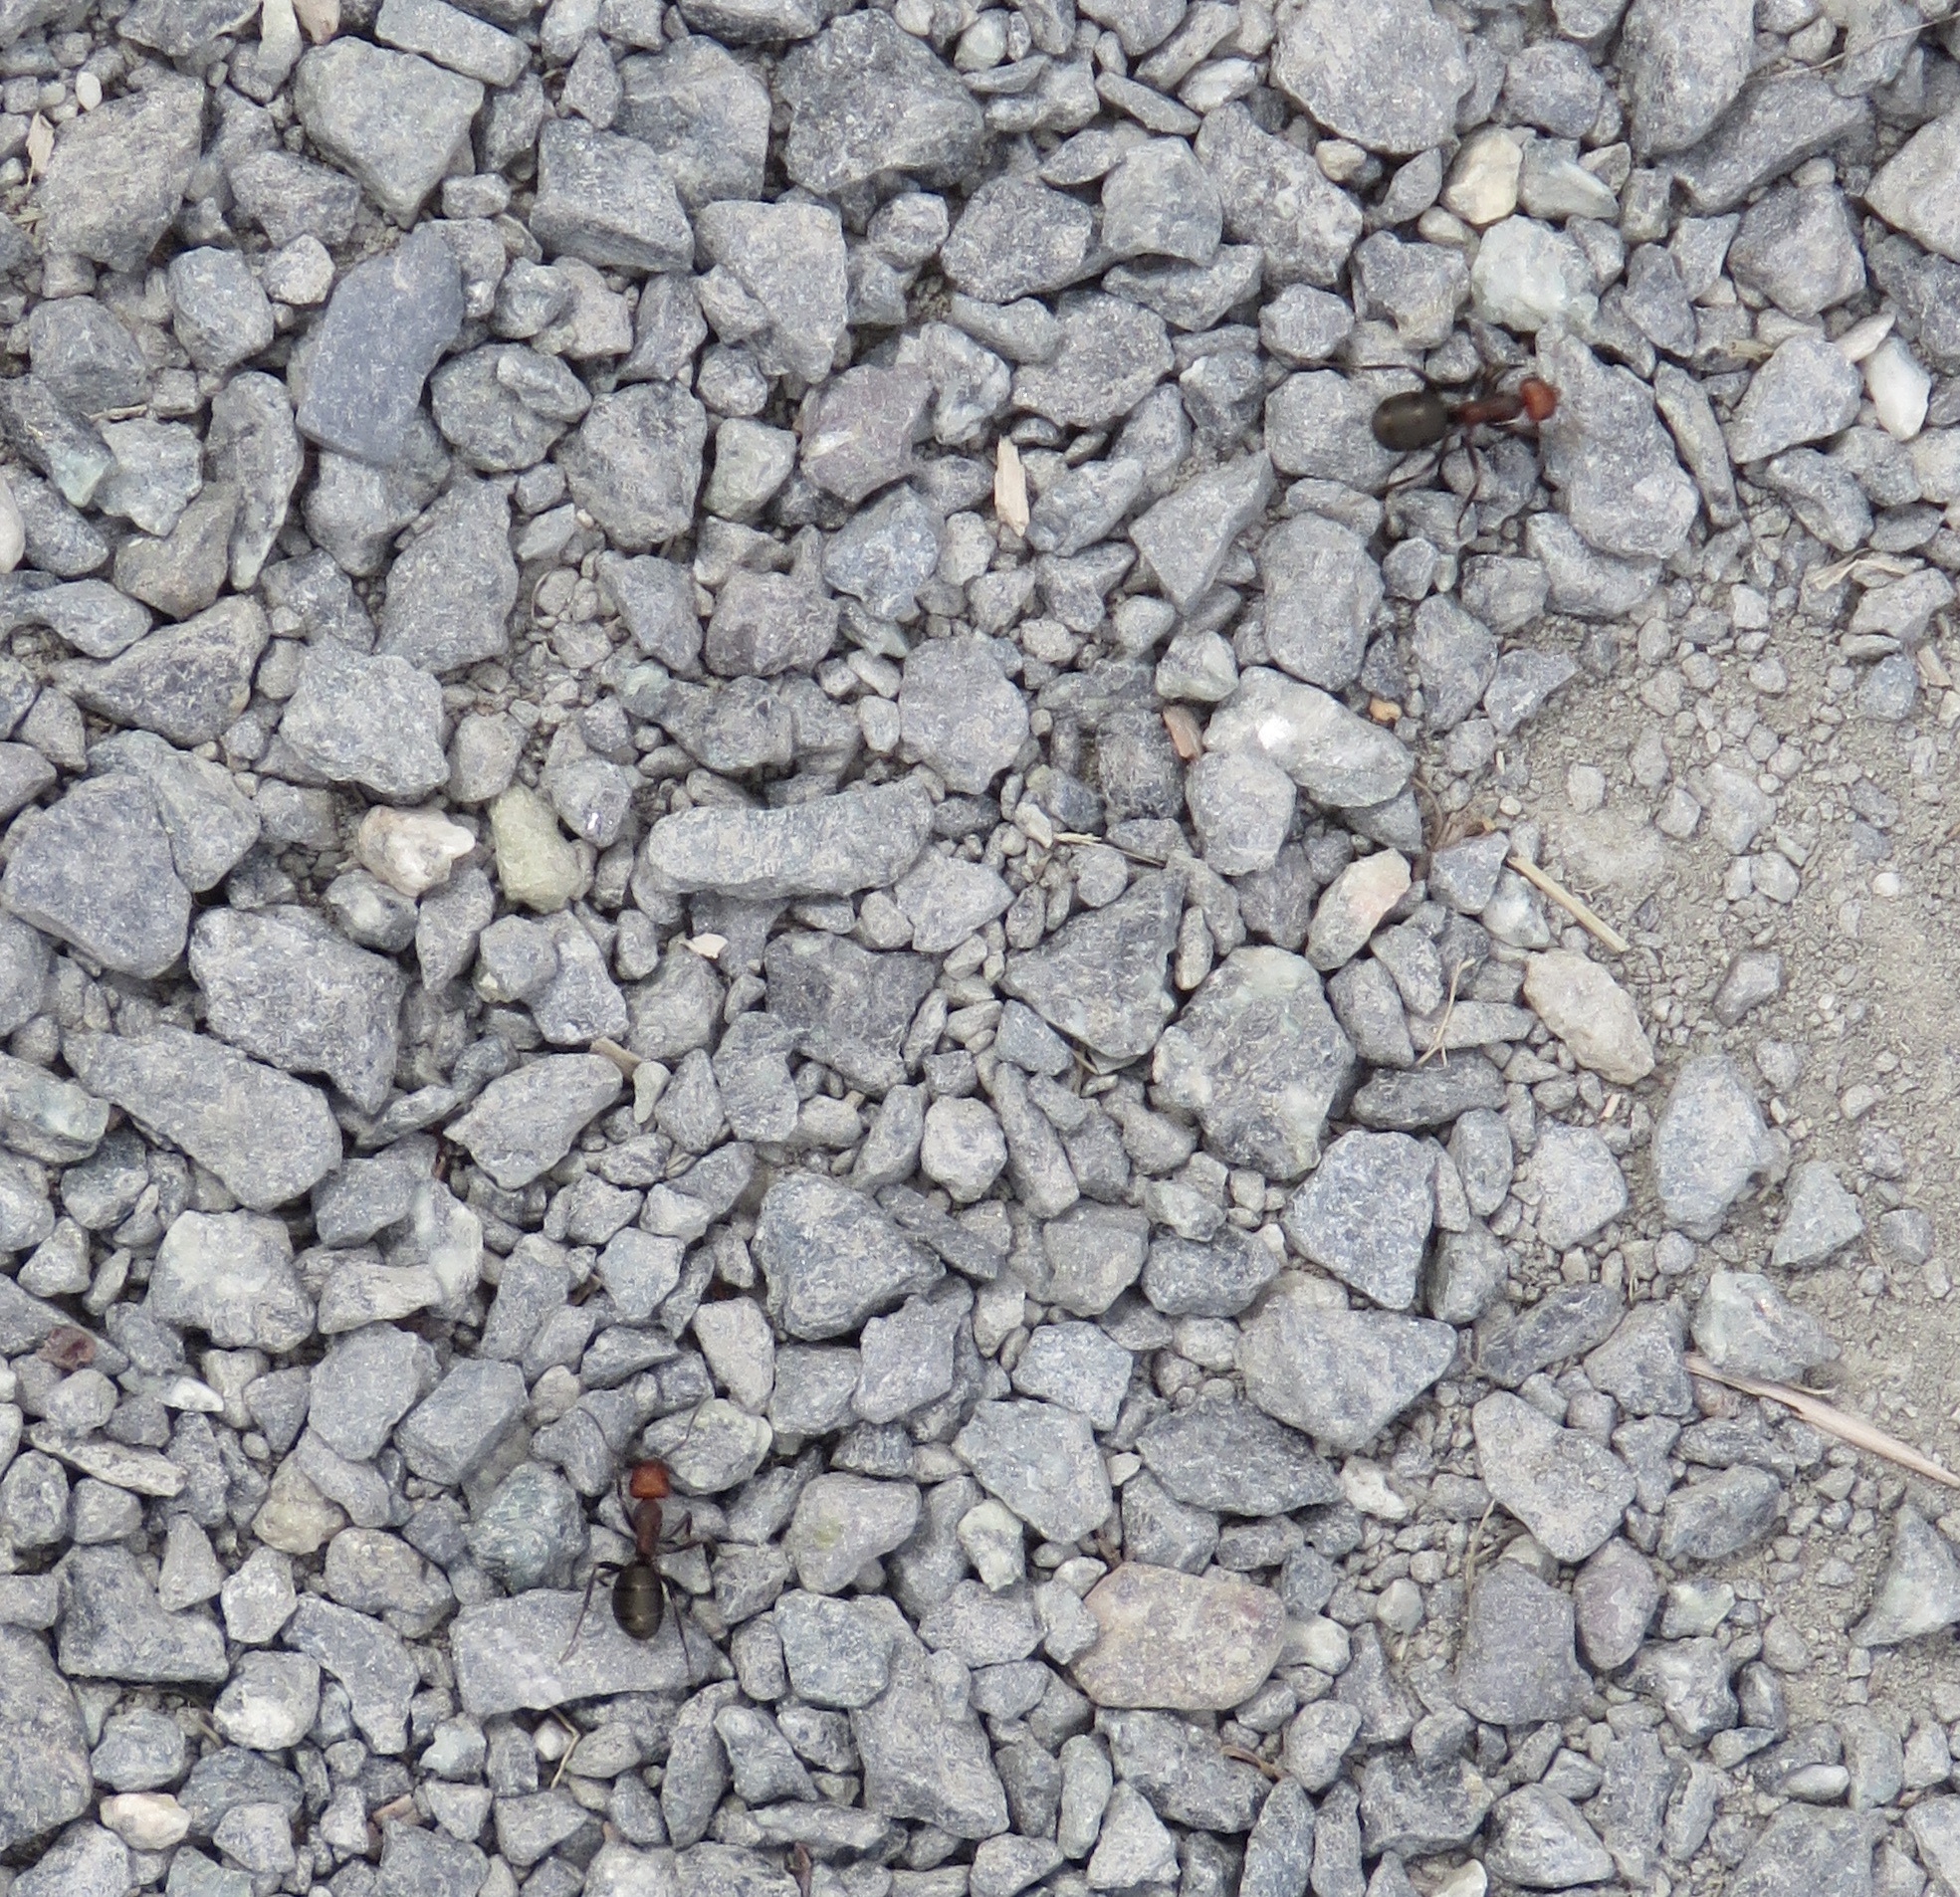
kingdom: Animalia
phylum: Arthropoda
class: Insecta
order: Hymenoptera
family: Formicidae
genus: Formica
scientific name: Formica obscuripes
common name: Western thatching ant
